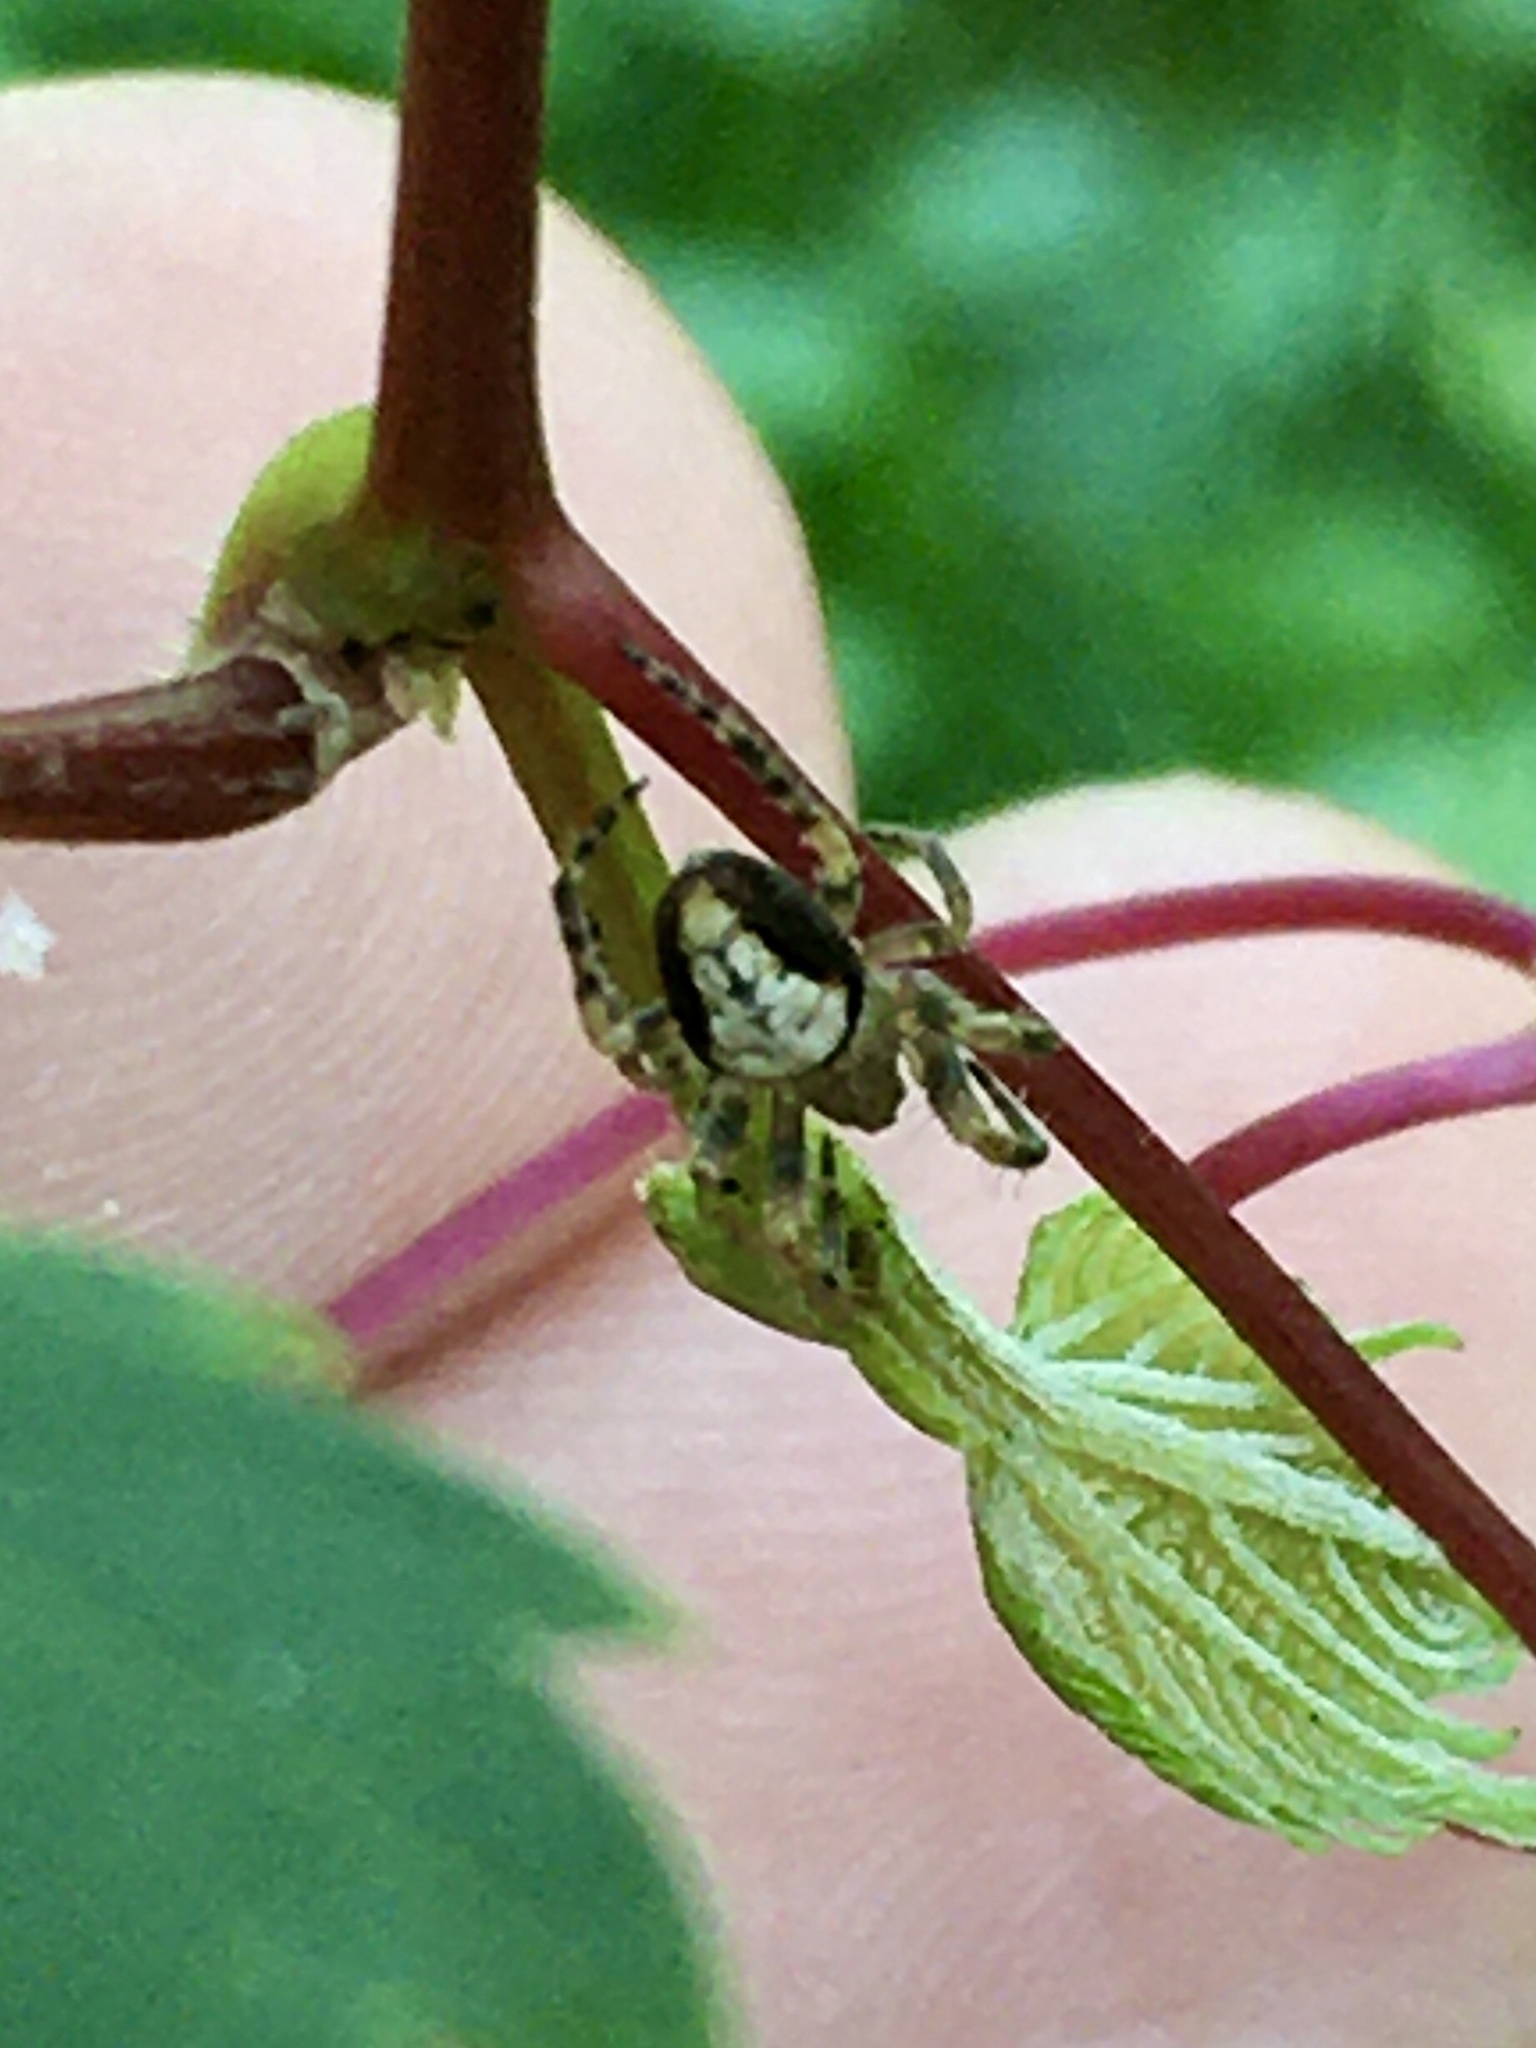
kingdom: Animalia
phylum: Arthropoda
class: Arachnida
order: Araneae
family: Araneidae
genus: Araneus
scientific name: Araneus thaddeus
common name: Lattice orbweaver
